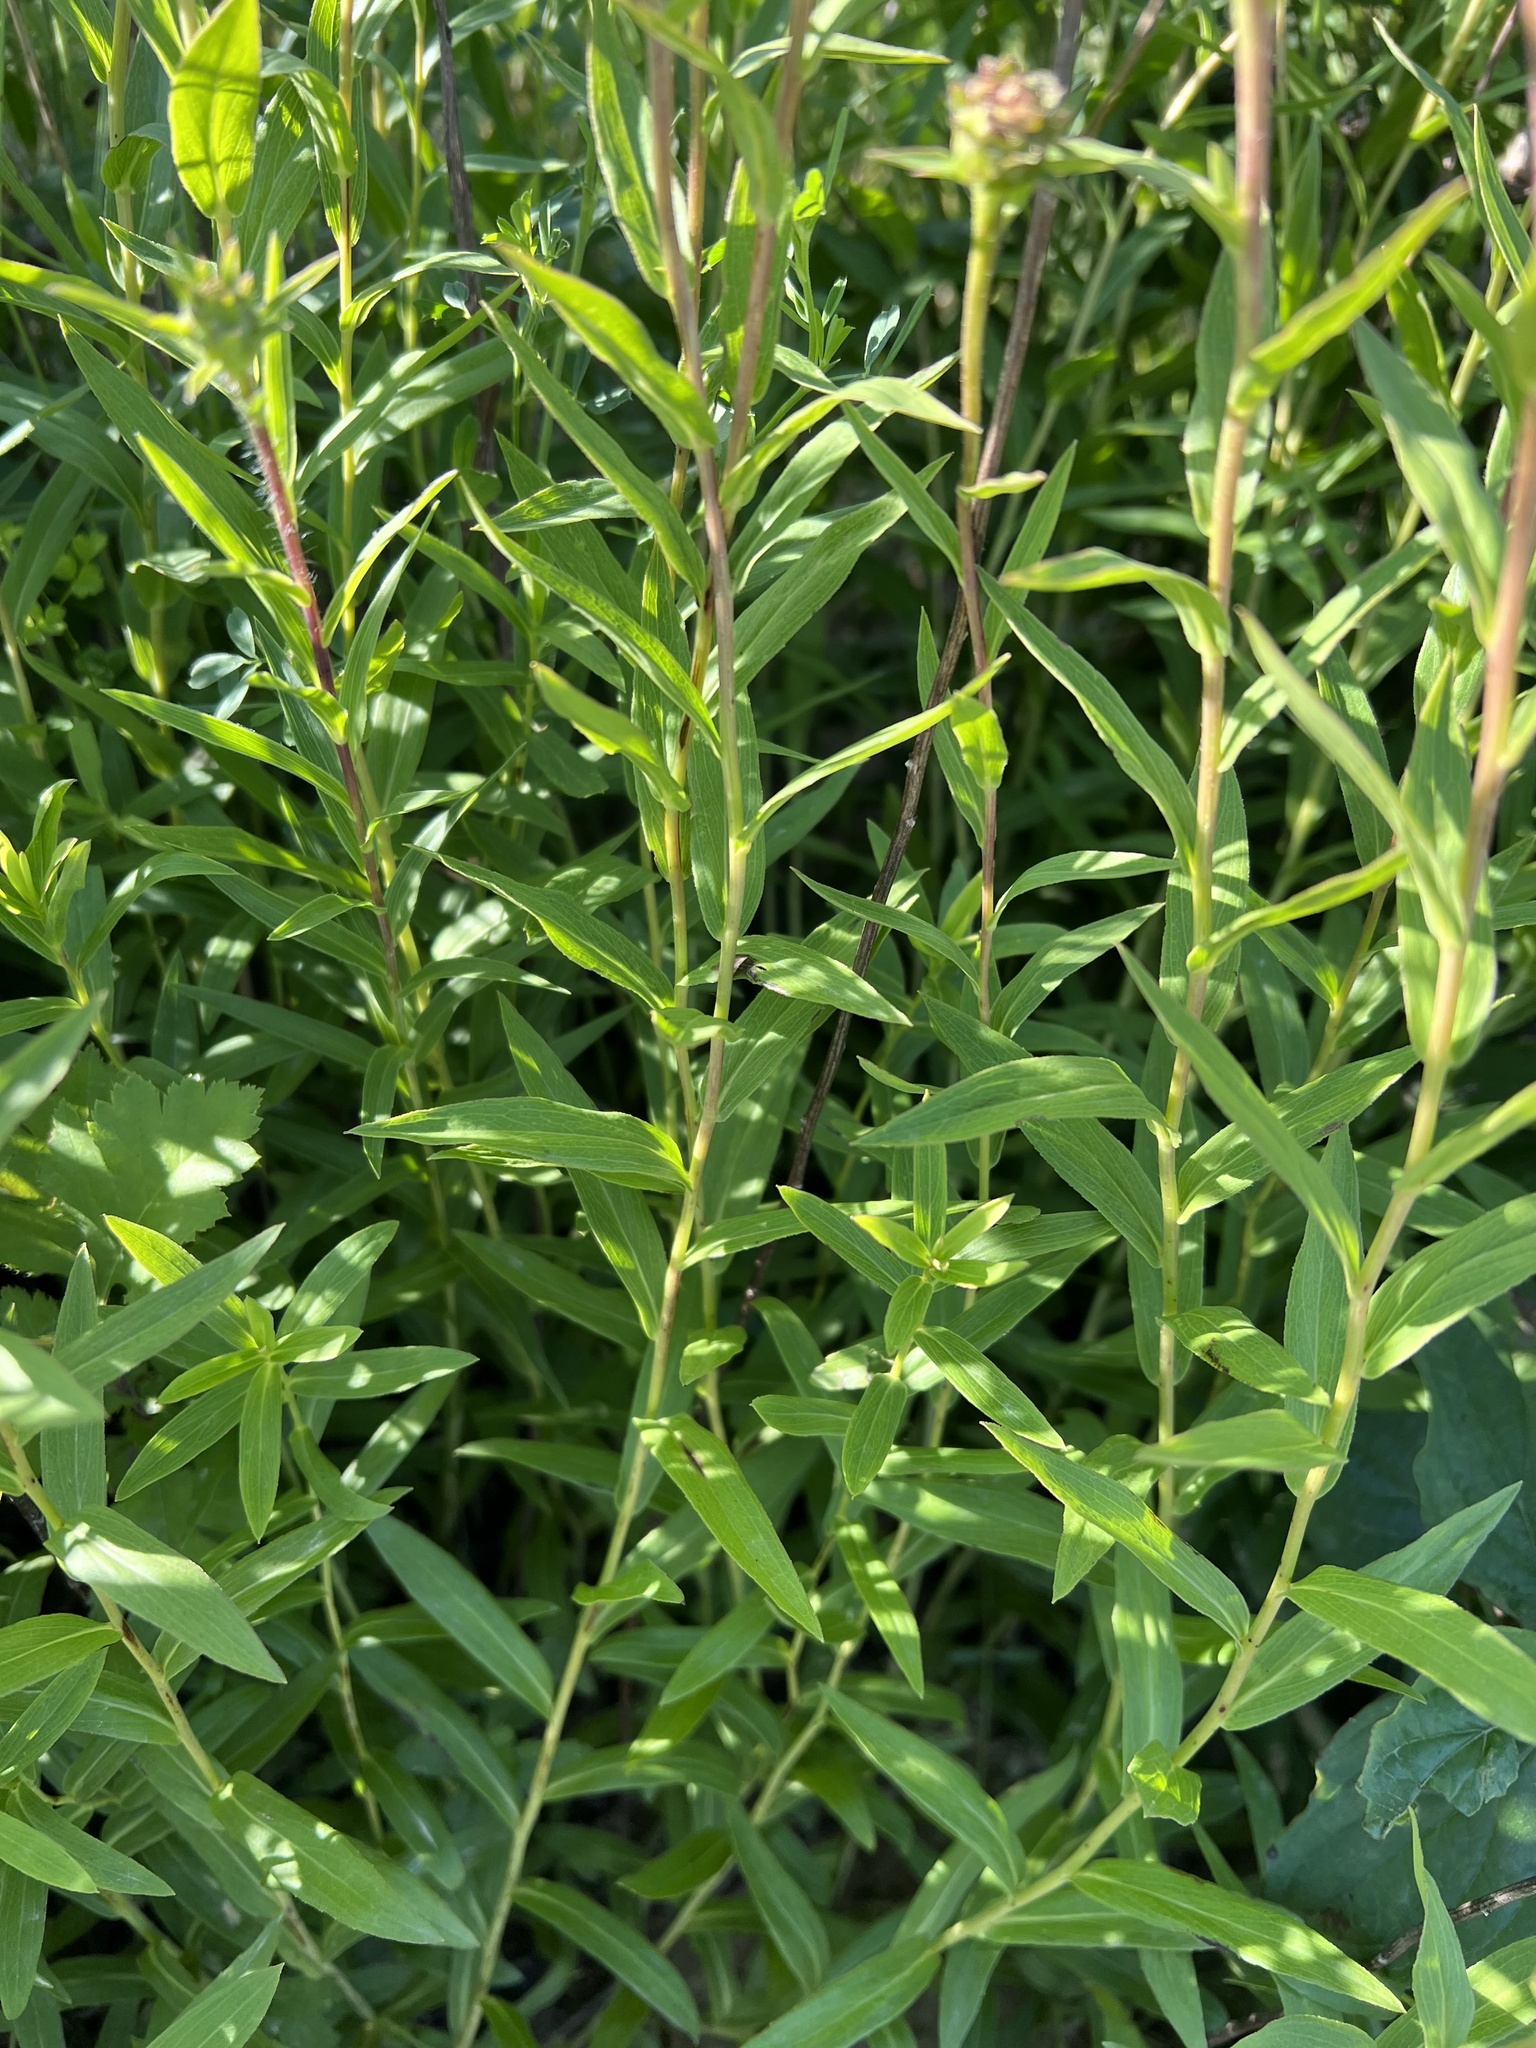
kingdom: Plantae
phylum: Tracheophyta
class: Magnoliopsida
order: Asterales
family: Asteraceae
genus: Pentanema
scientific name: Pentanema salicinum
